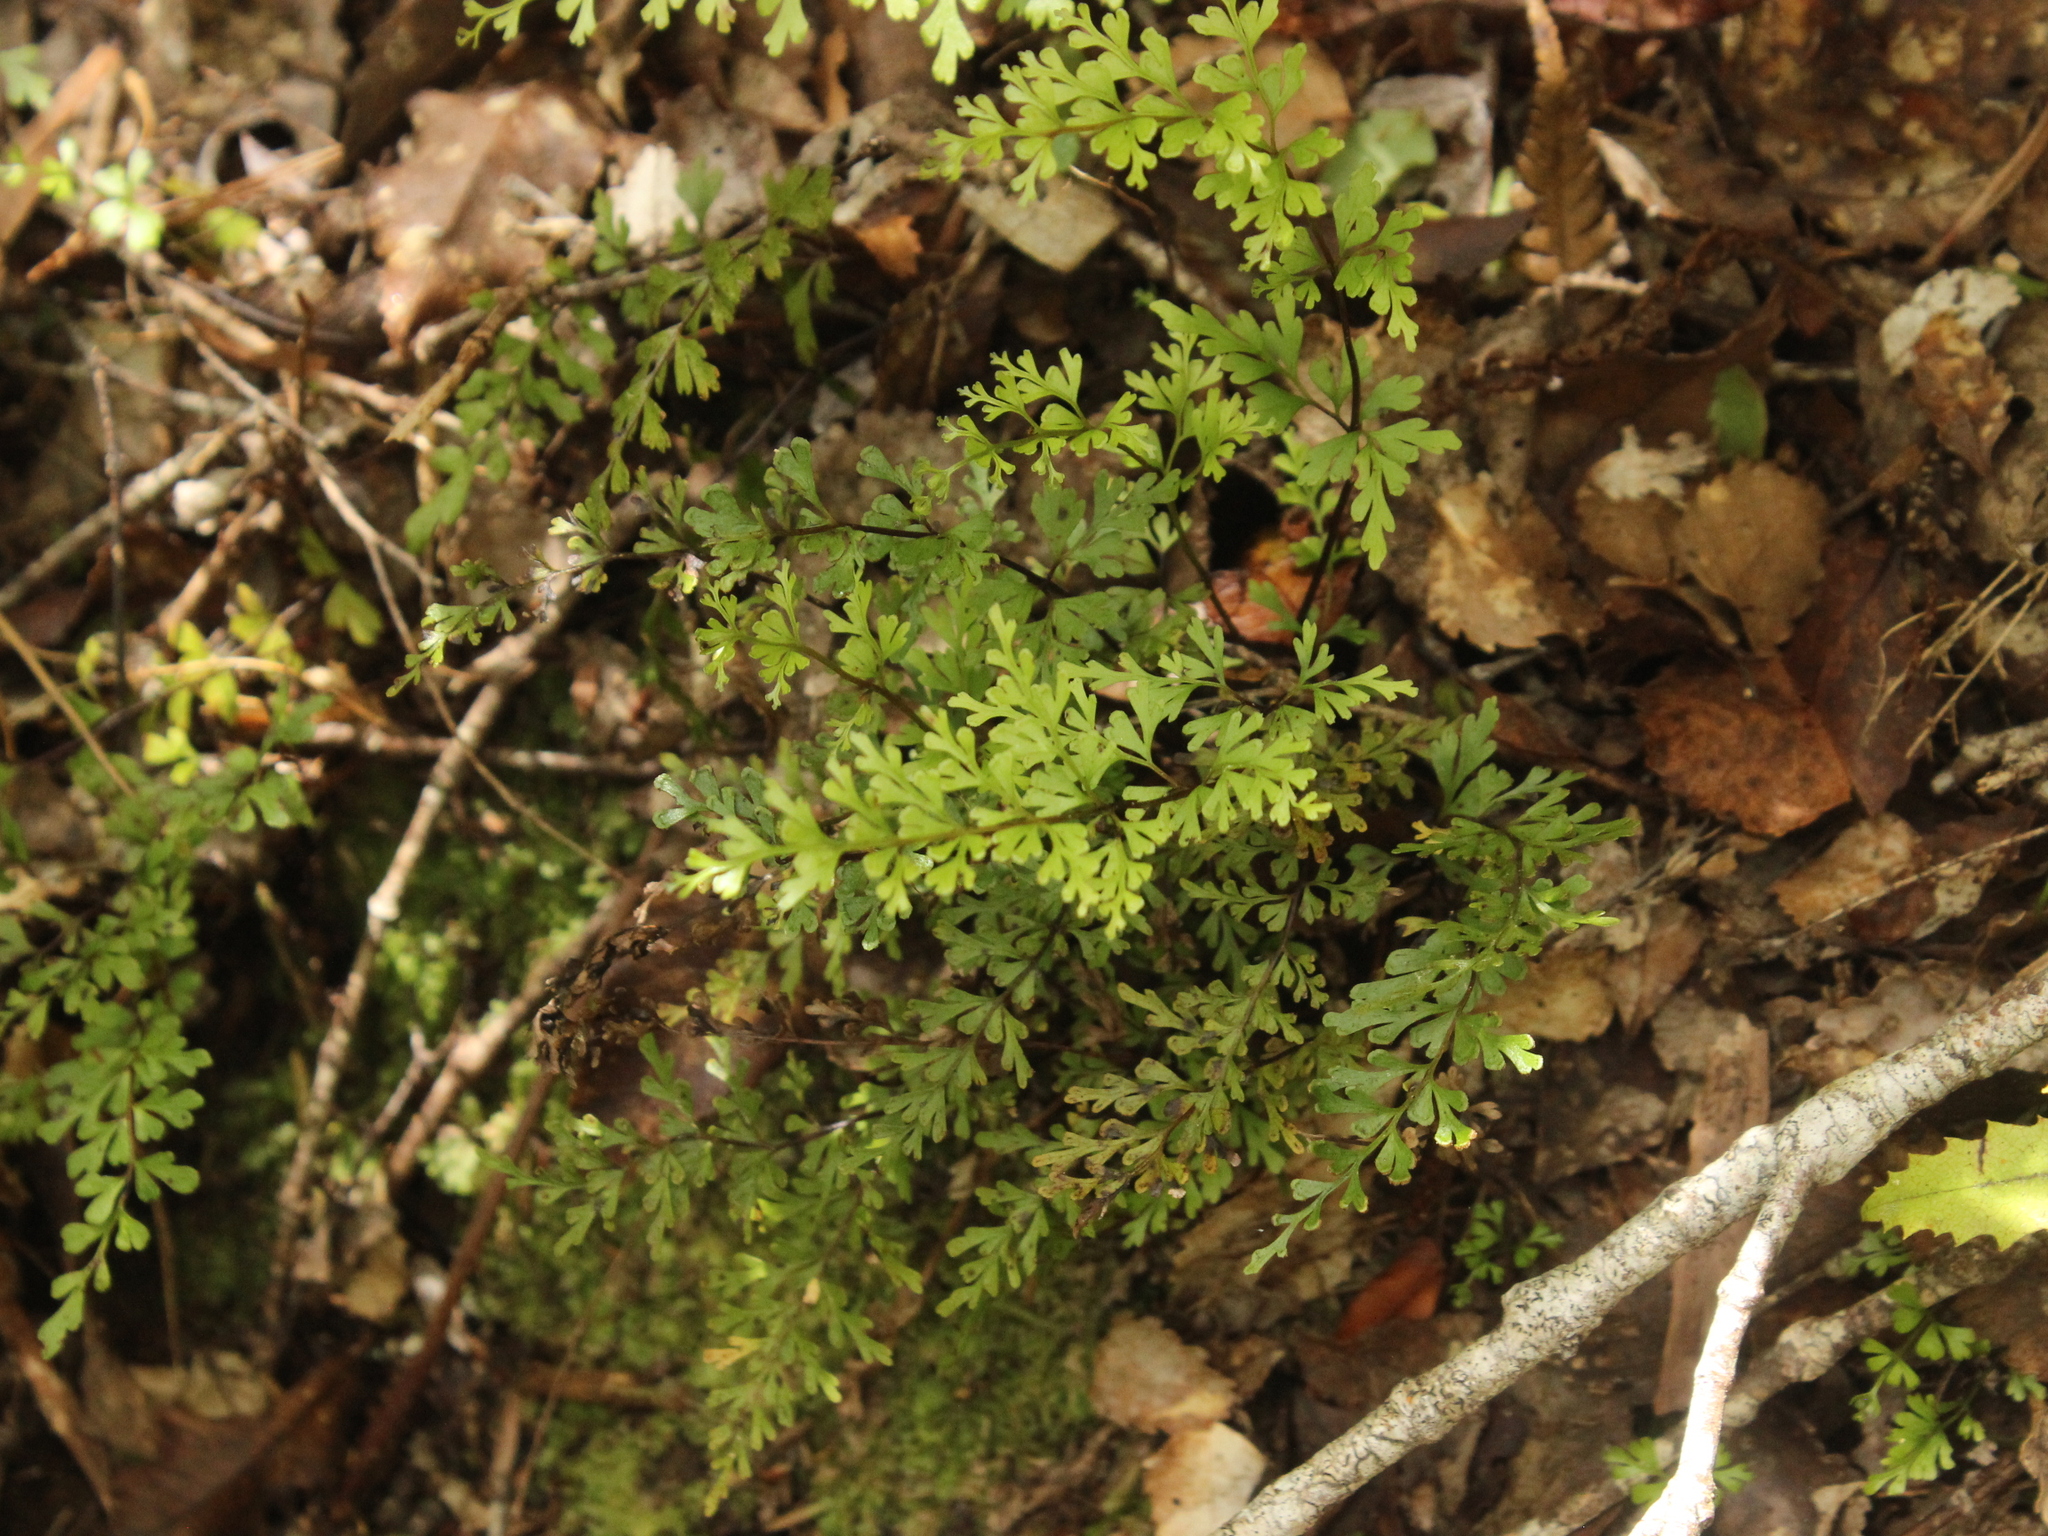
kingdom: Plantae
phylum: Tracheophyta
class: Polypodiopsida
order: Polypodiales
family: Lindsaeaceae
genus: Lindsaea
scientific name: Lindsaea trichomanoides
